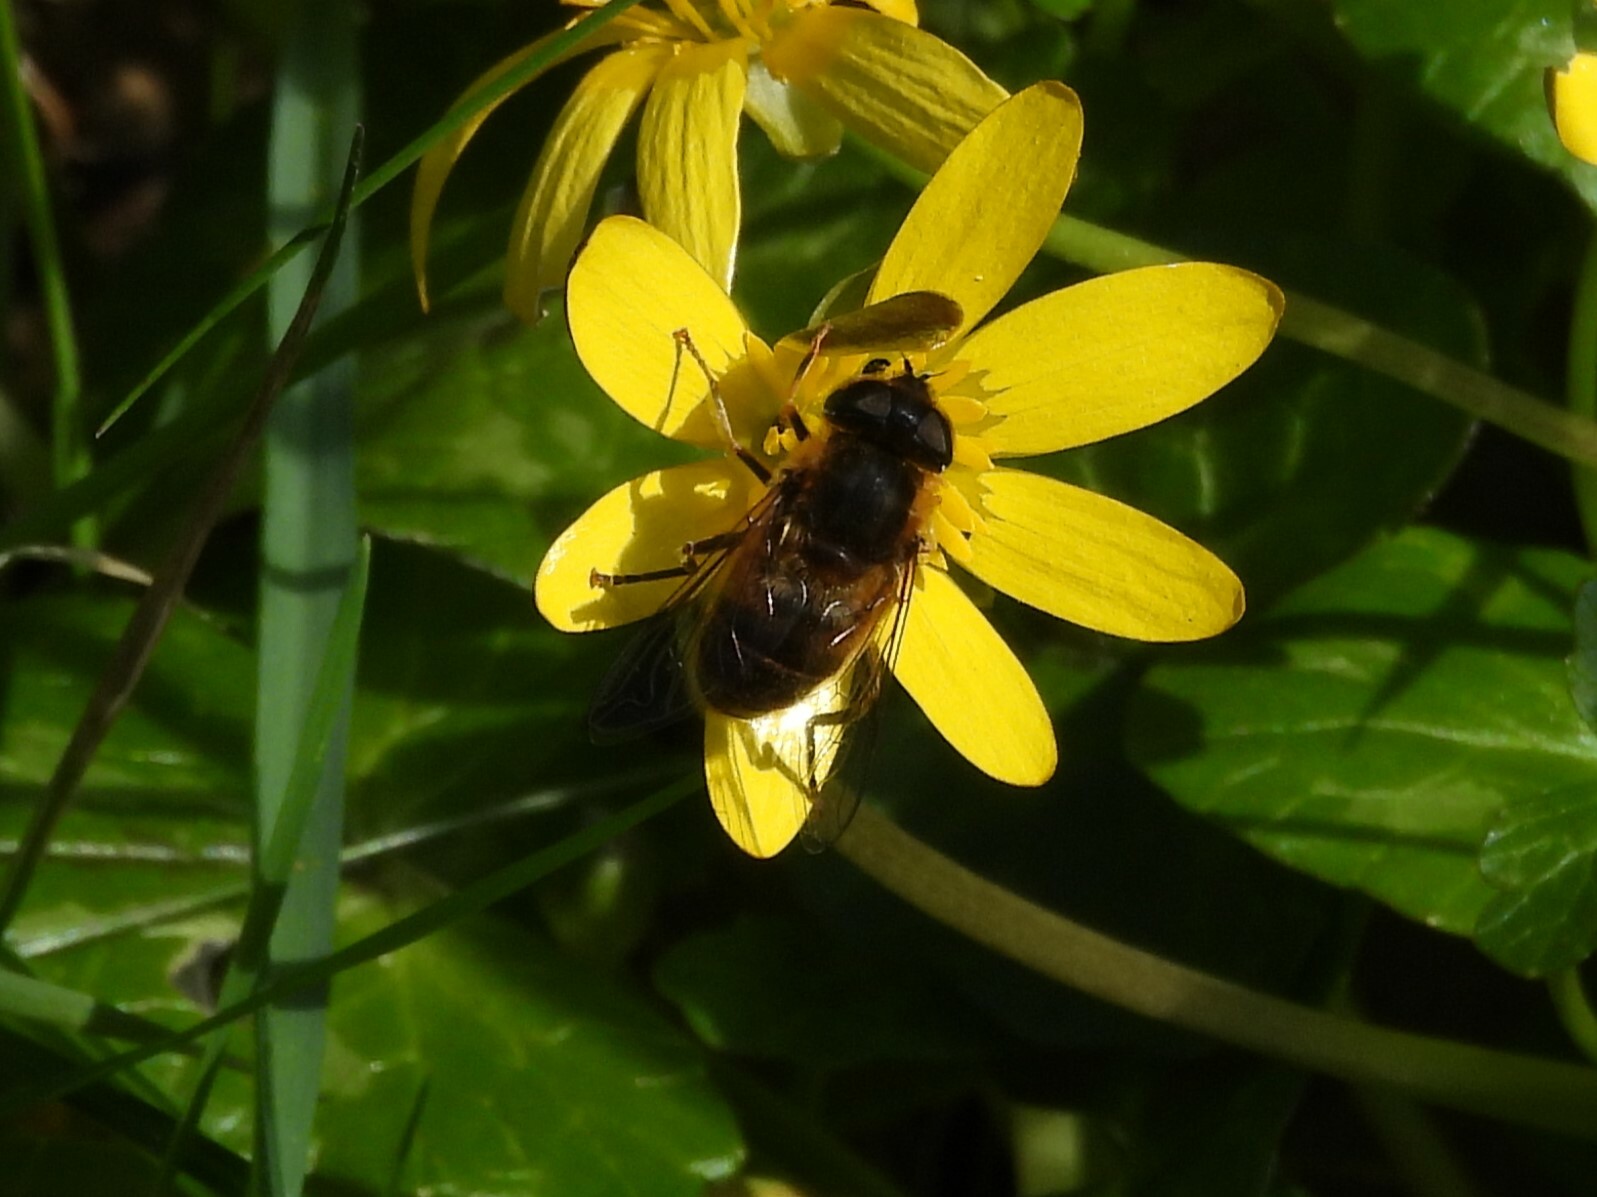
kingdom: Animalia
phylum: Arthropoda
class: Insecta
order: Diptera
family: Syrphidae
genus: Eristalis
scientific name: Eristalis pertinax
